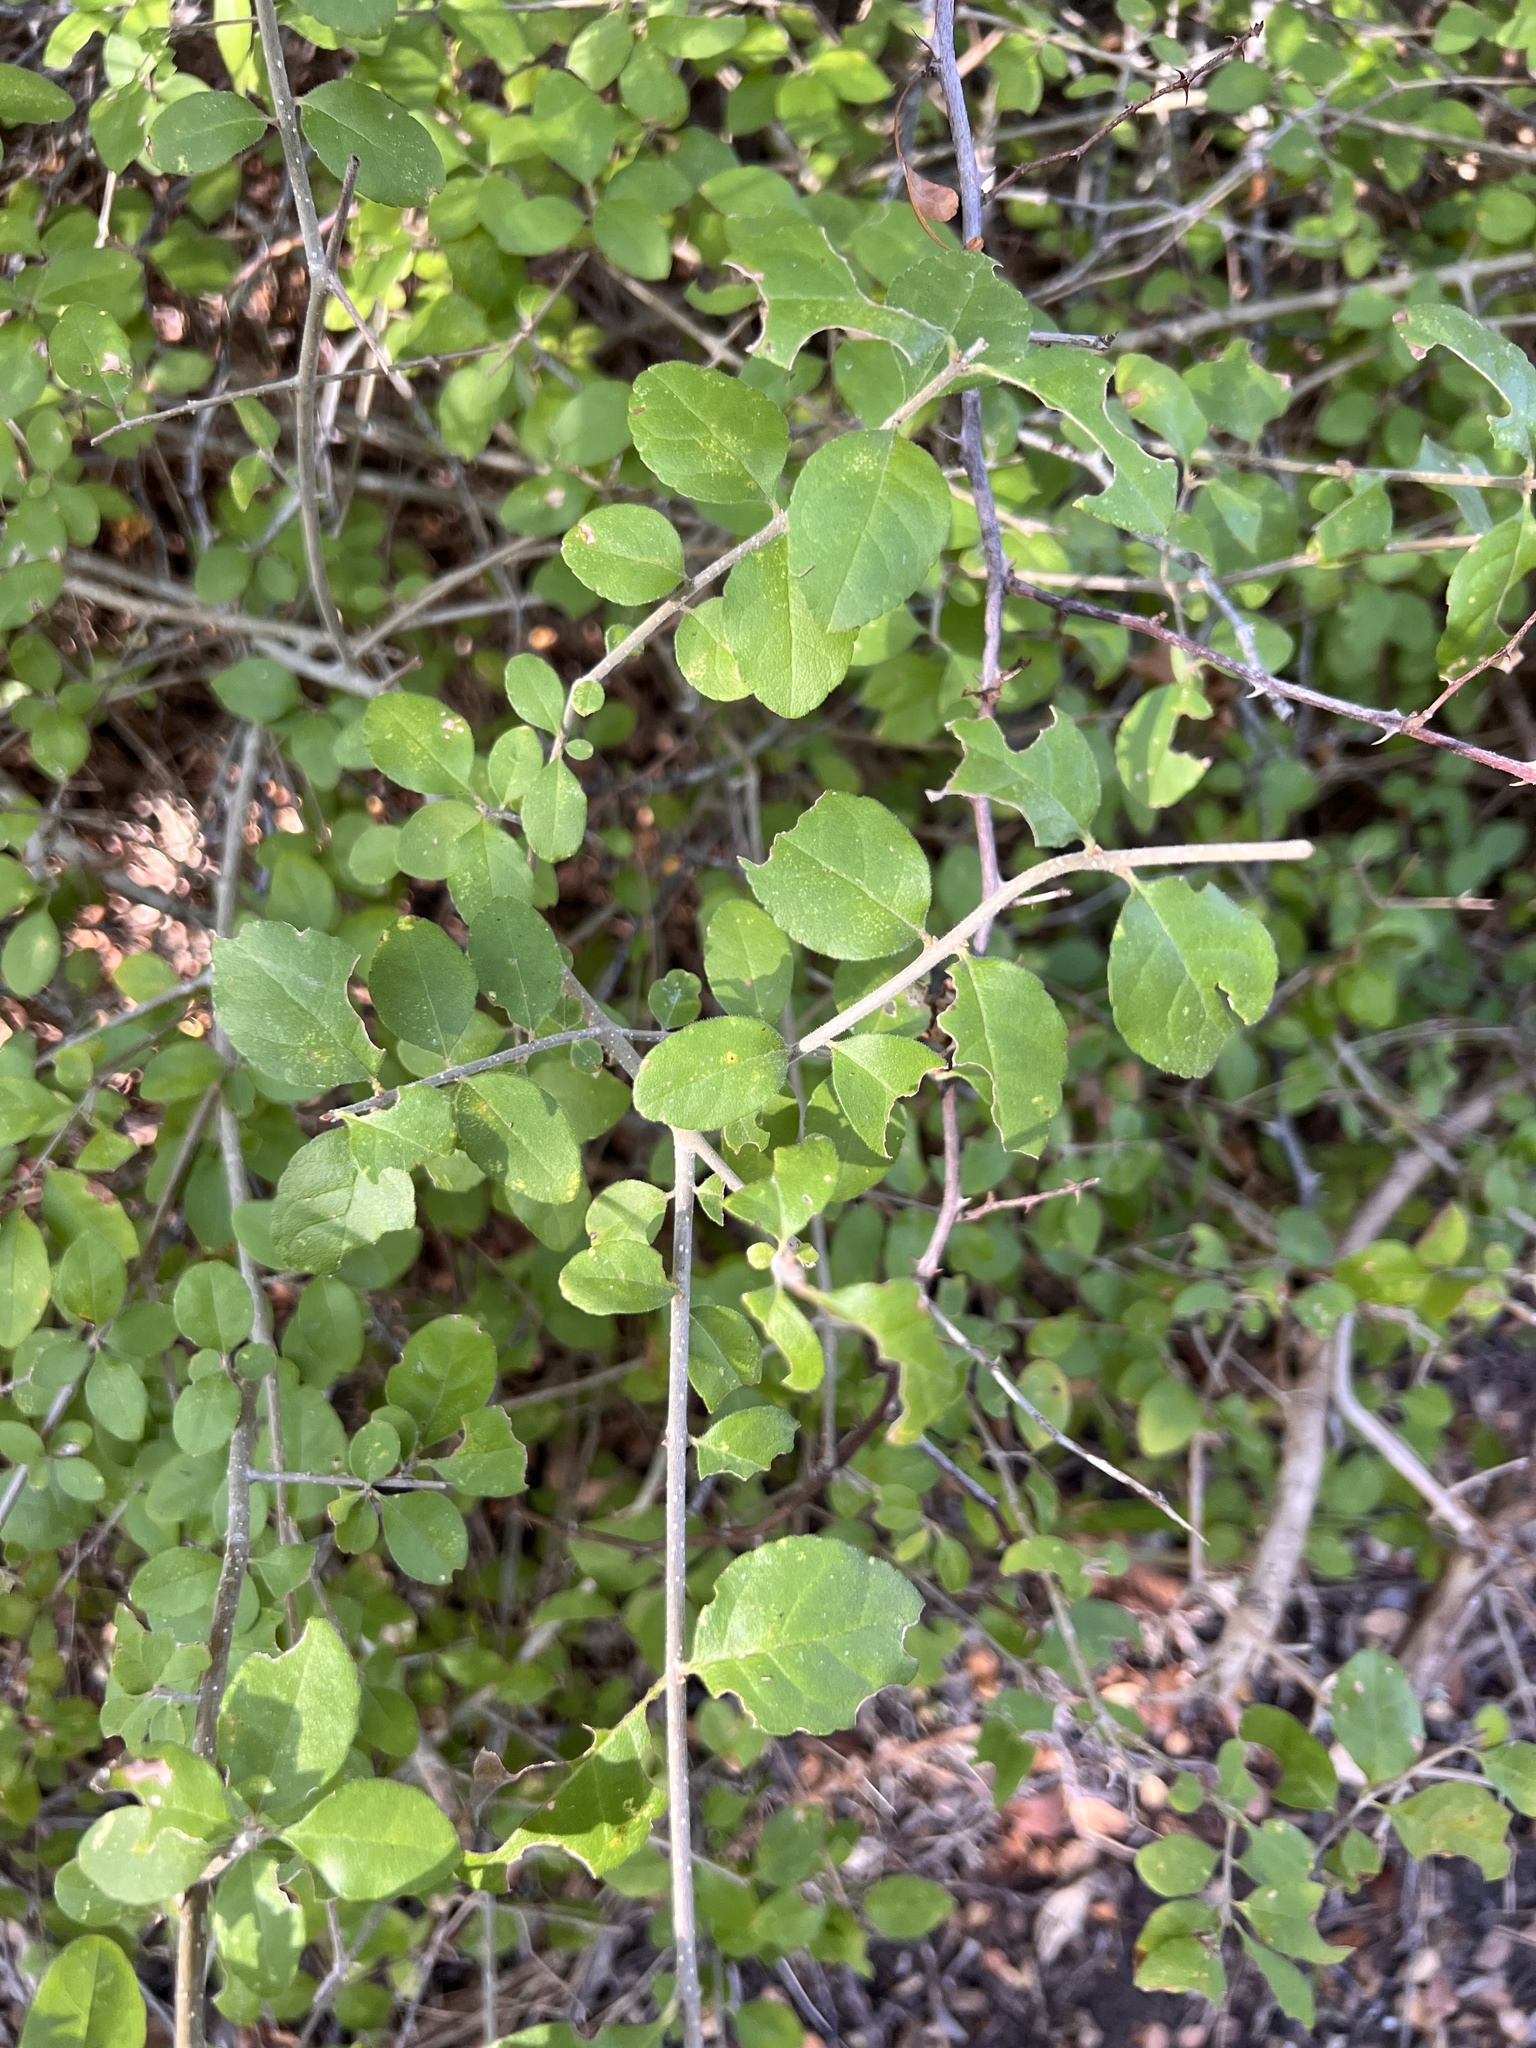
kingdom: Plantae
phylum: Tracheophyta
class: Magnoliopsida
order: Lamiales
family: Oleaceae
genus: Forestiera
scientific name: Forestiera pubescens
